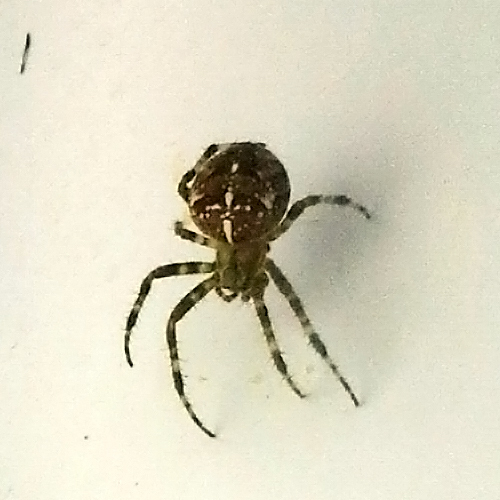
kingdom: Animalia
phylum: Arthropoda
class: Arachnida
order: Araneae
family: Araneidae
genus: Araneus
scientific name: Araneus diadematus
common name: Cross orbweaver
